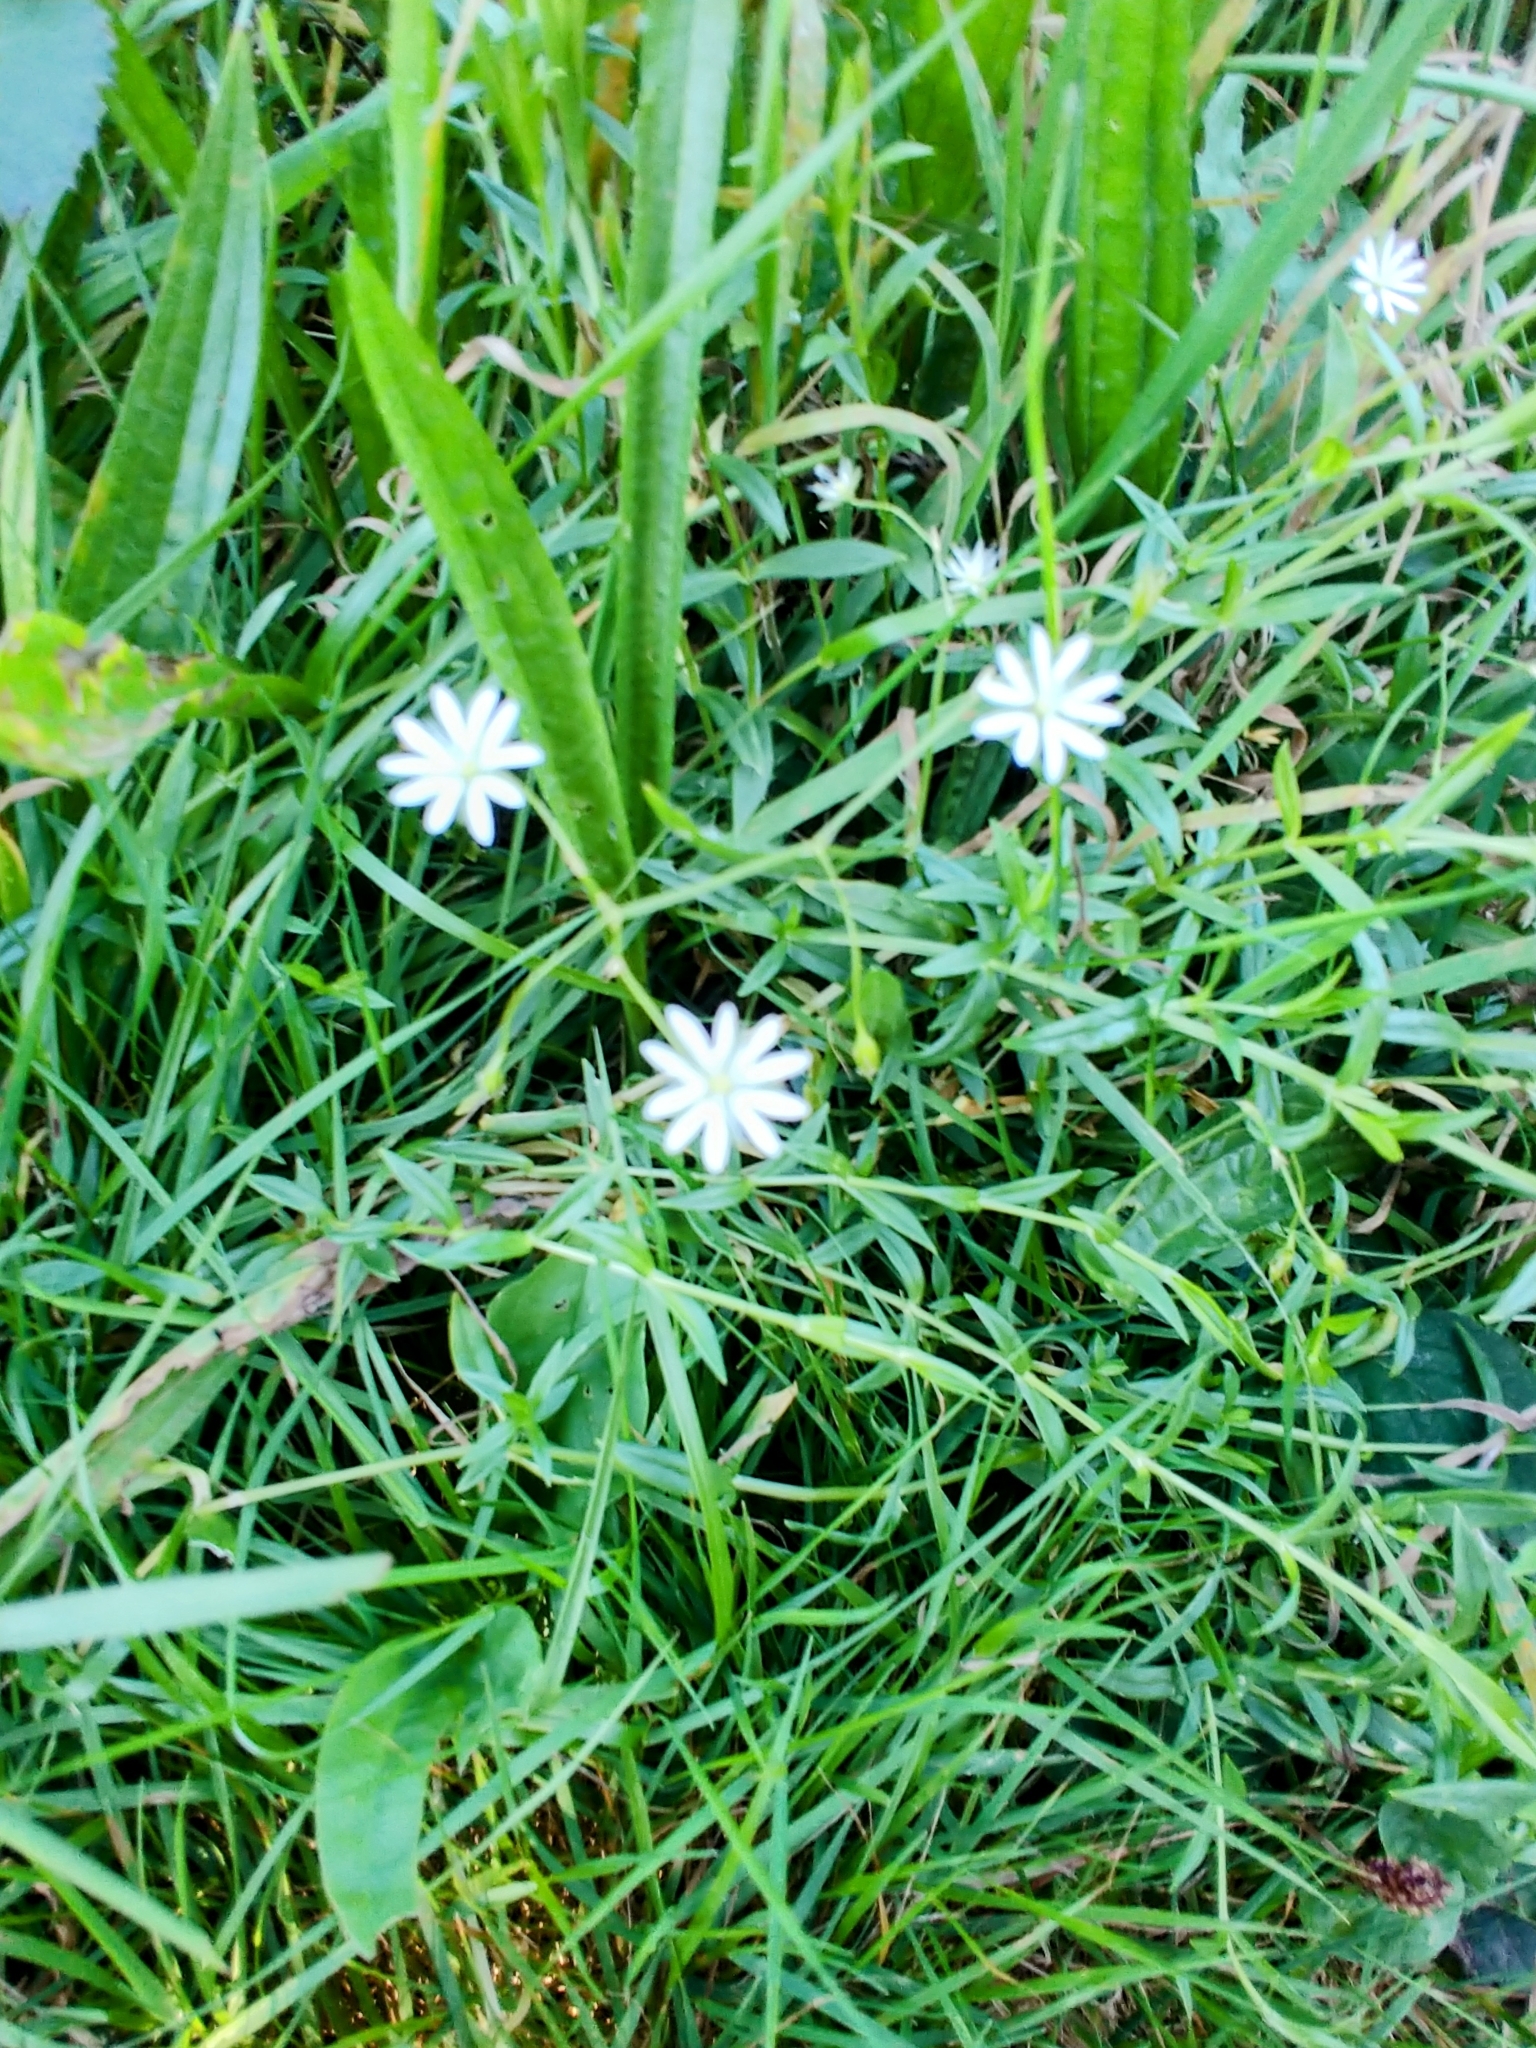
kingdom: Plantae
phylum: Tracheophyta
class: Magnoliopsida
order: Caryophyllales
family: Caryophyllaceae
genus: Stellaria
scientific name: Stellaria graminea
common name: Grass-like starwort
